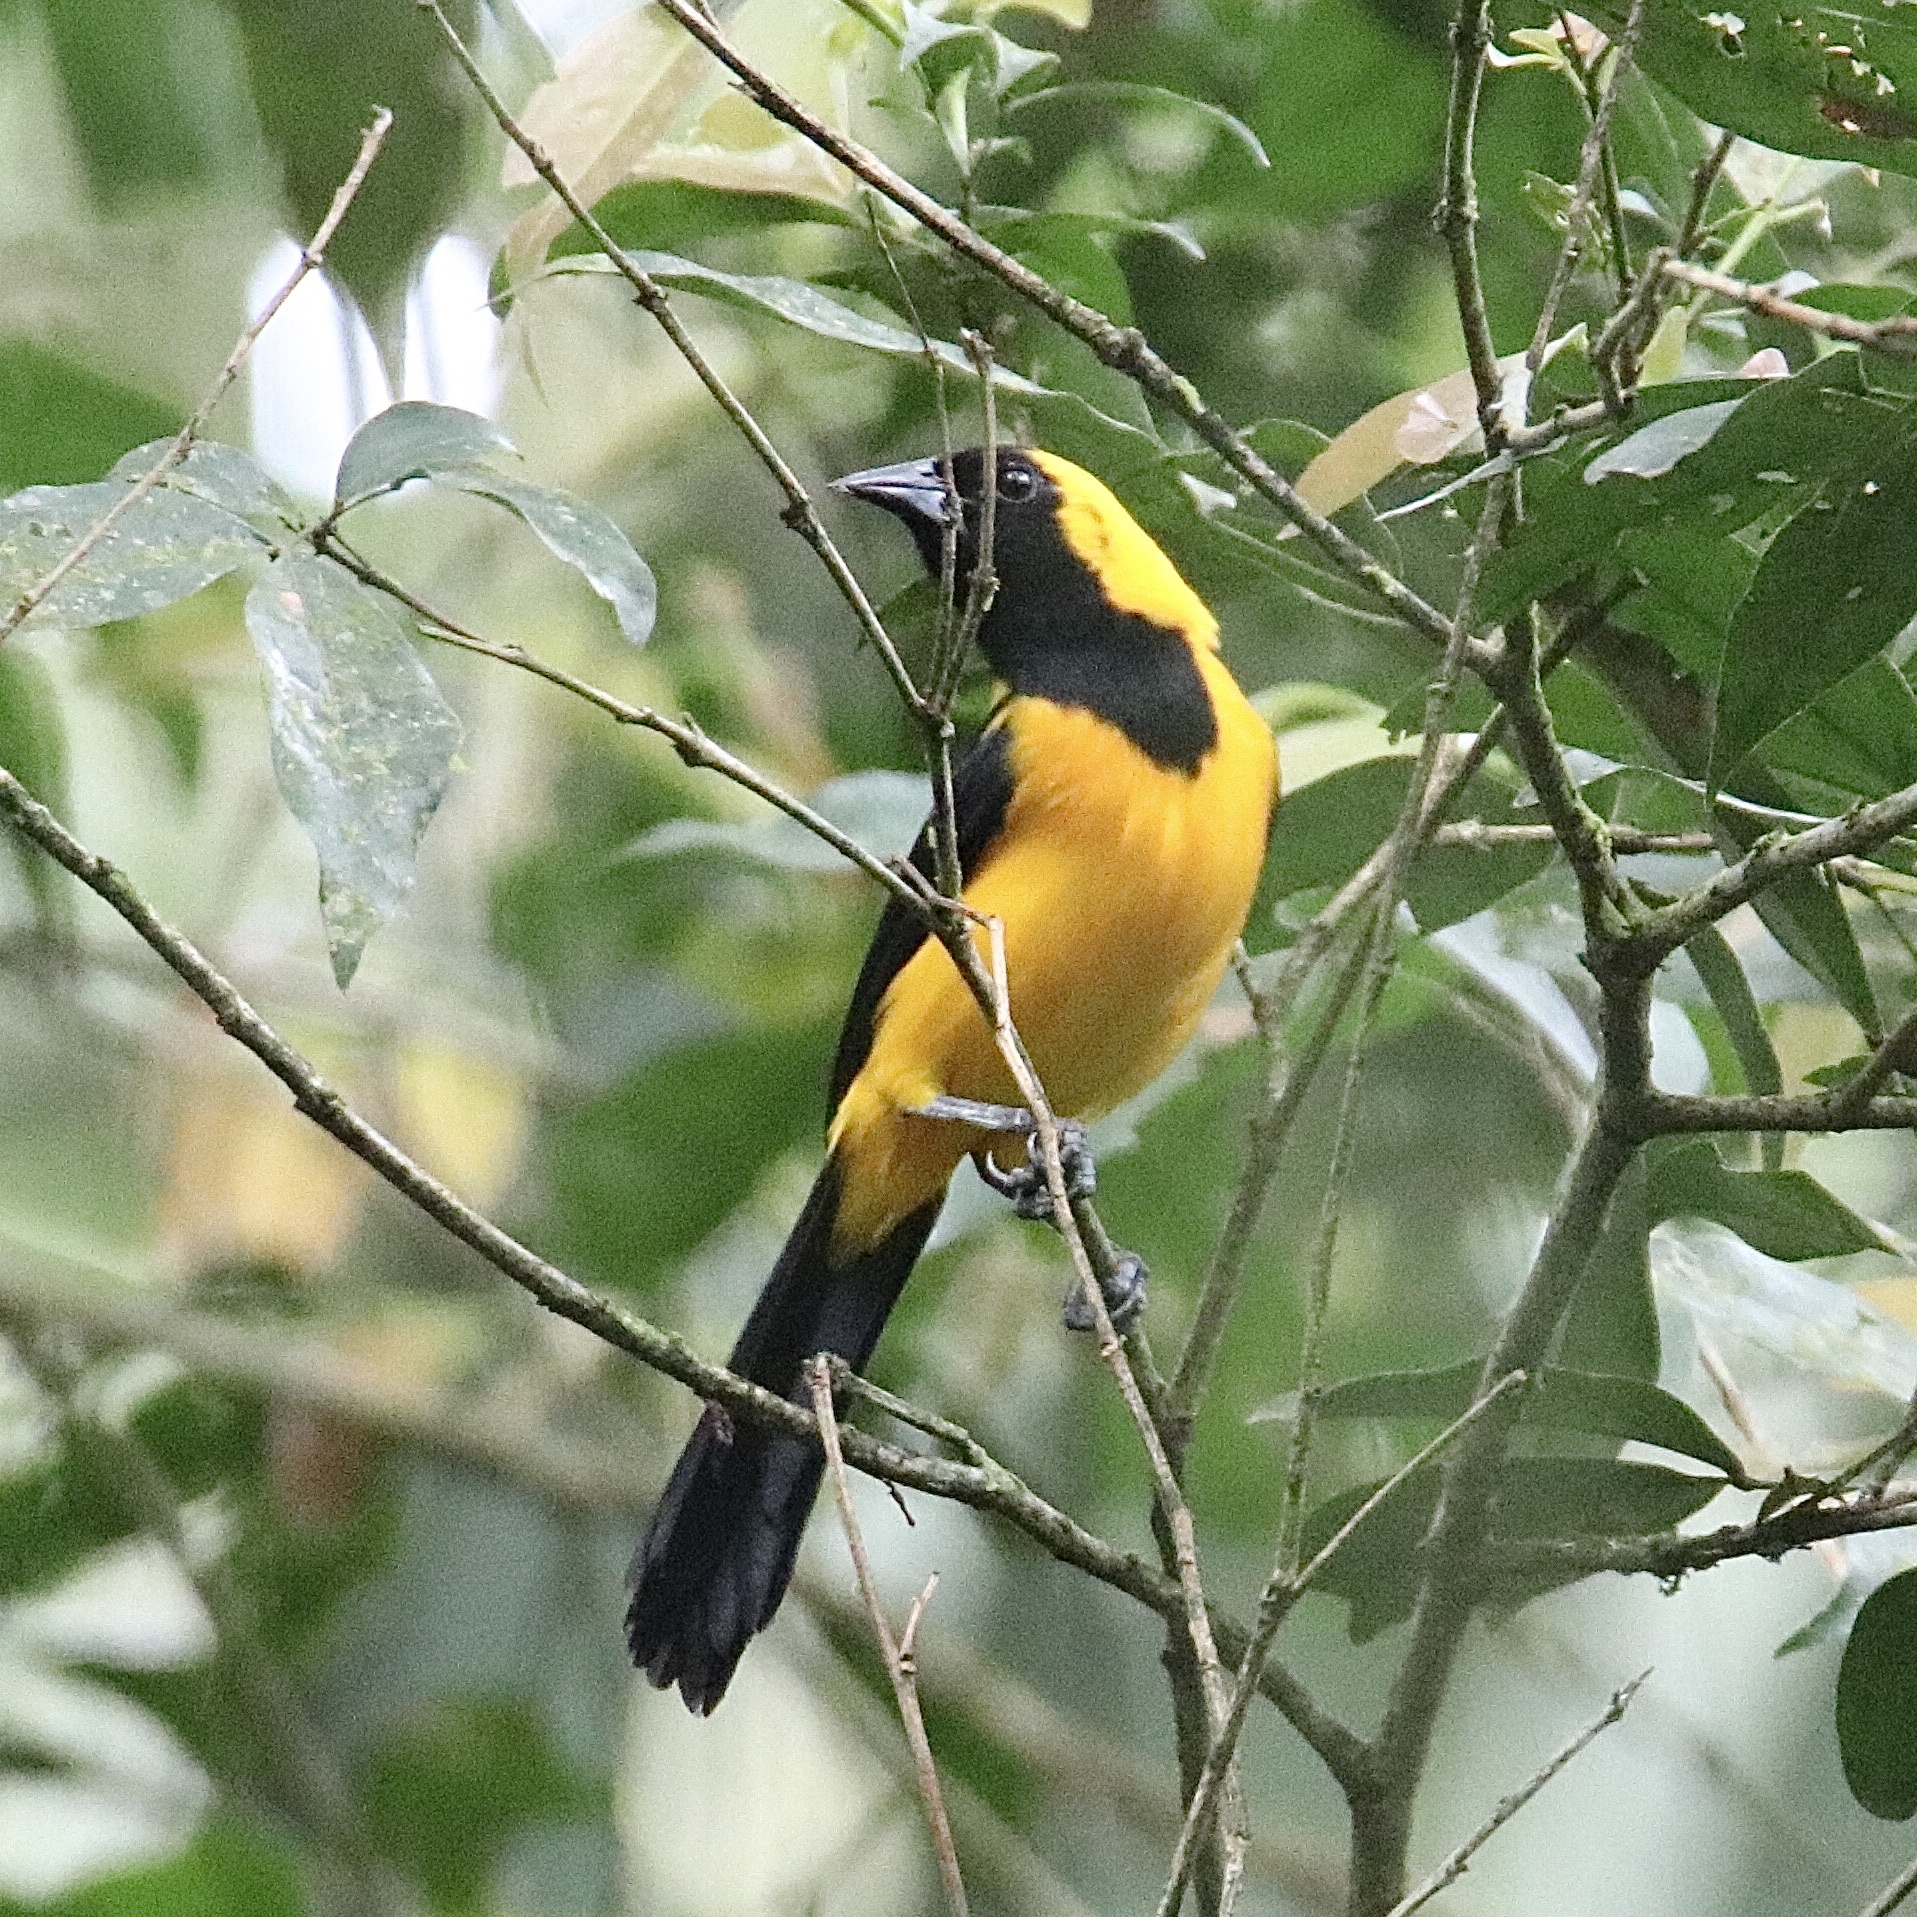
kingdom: Animalia
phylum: Chordata
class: Aves
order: Passeriformes
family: Icteridae
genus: Icterus
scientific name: Icterus chrysater
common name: Yellow-backed oriole
